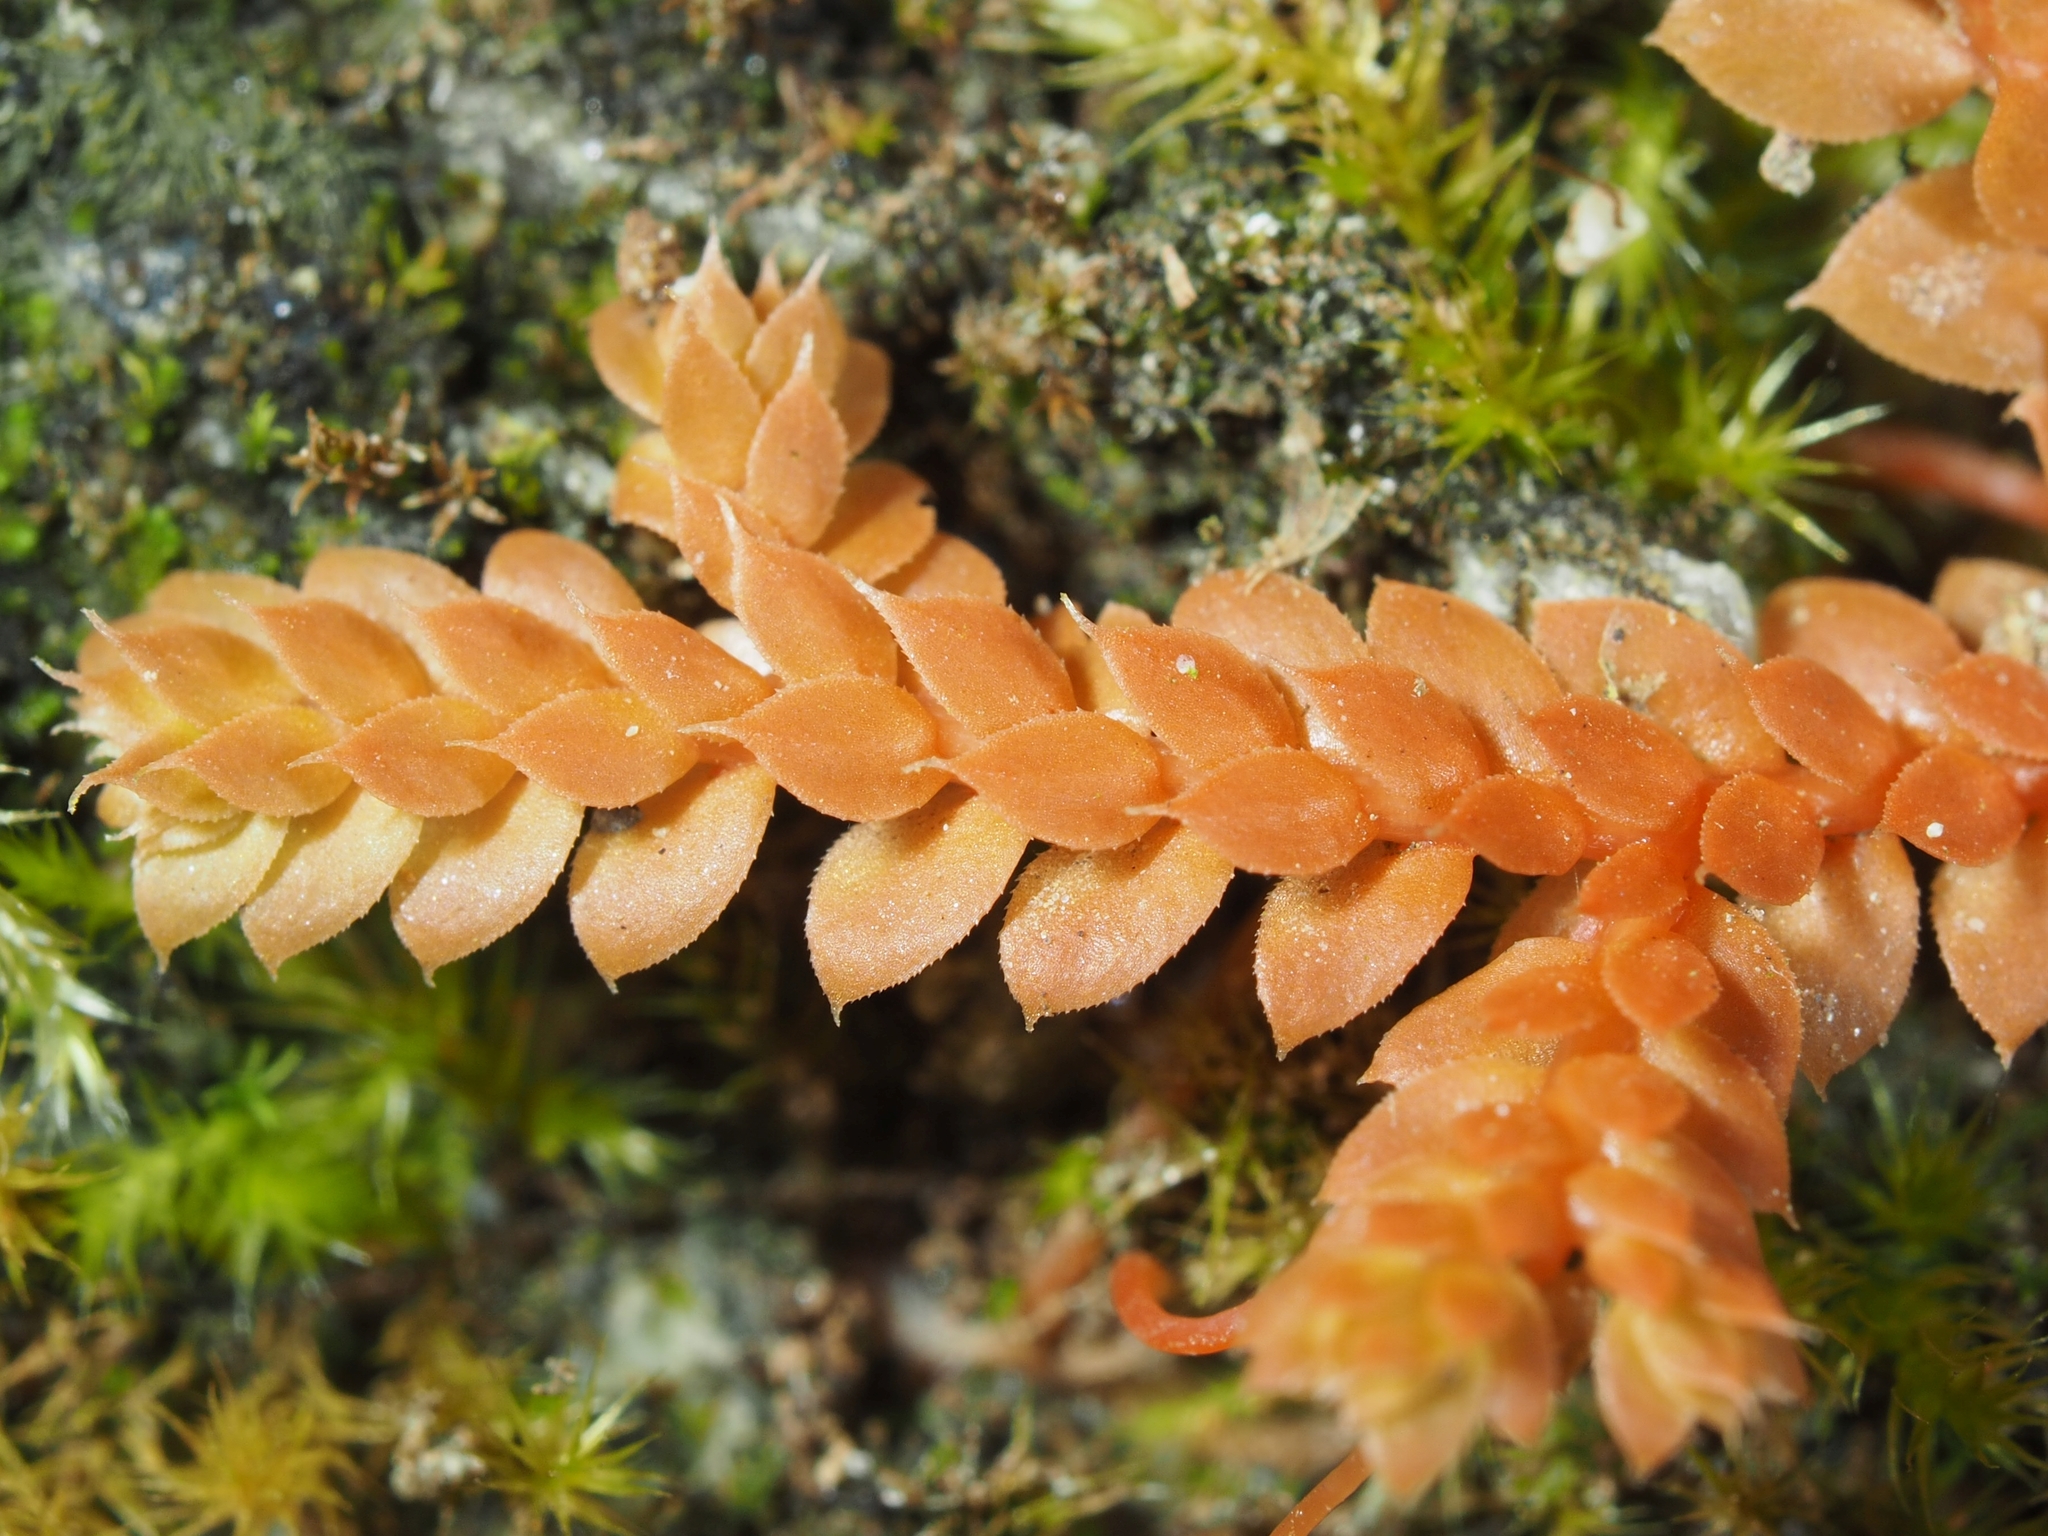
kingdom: Plantae
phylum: Tracheophyta
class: Lycopodiopsida
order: Selaginellales
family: Selaginellaceae
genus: Selaginella
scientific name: Selaginella denticulata
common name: Toothed-leaved clubmoss
